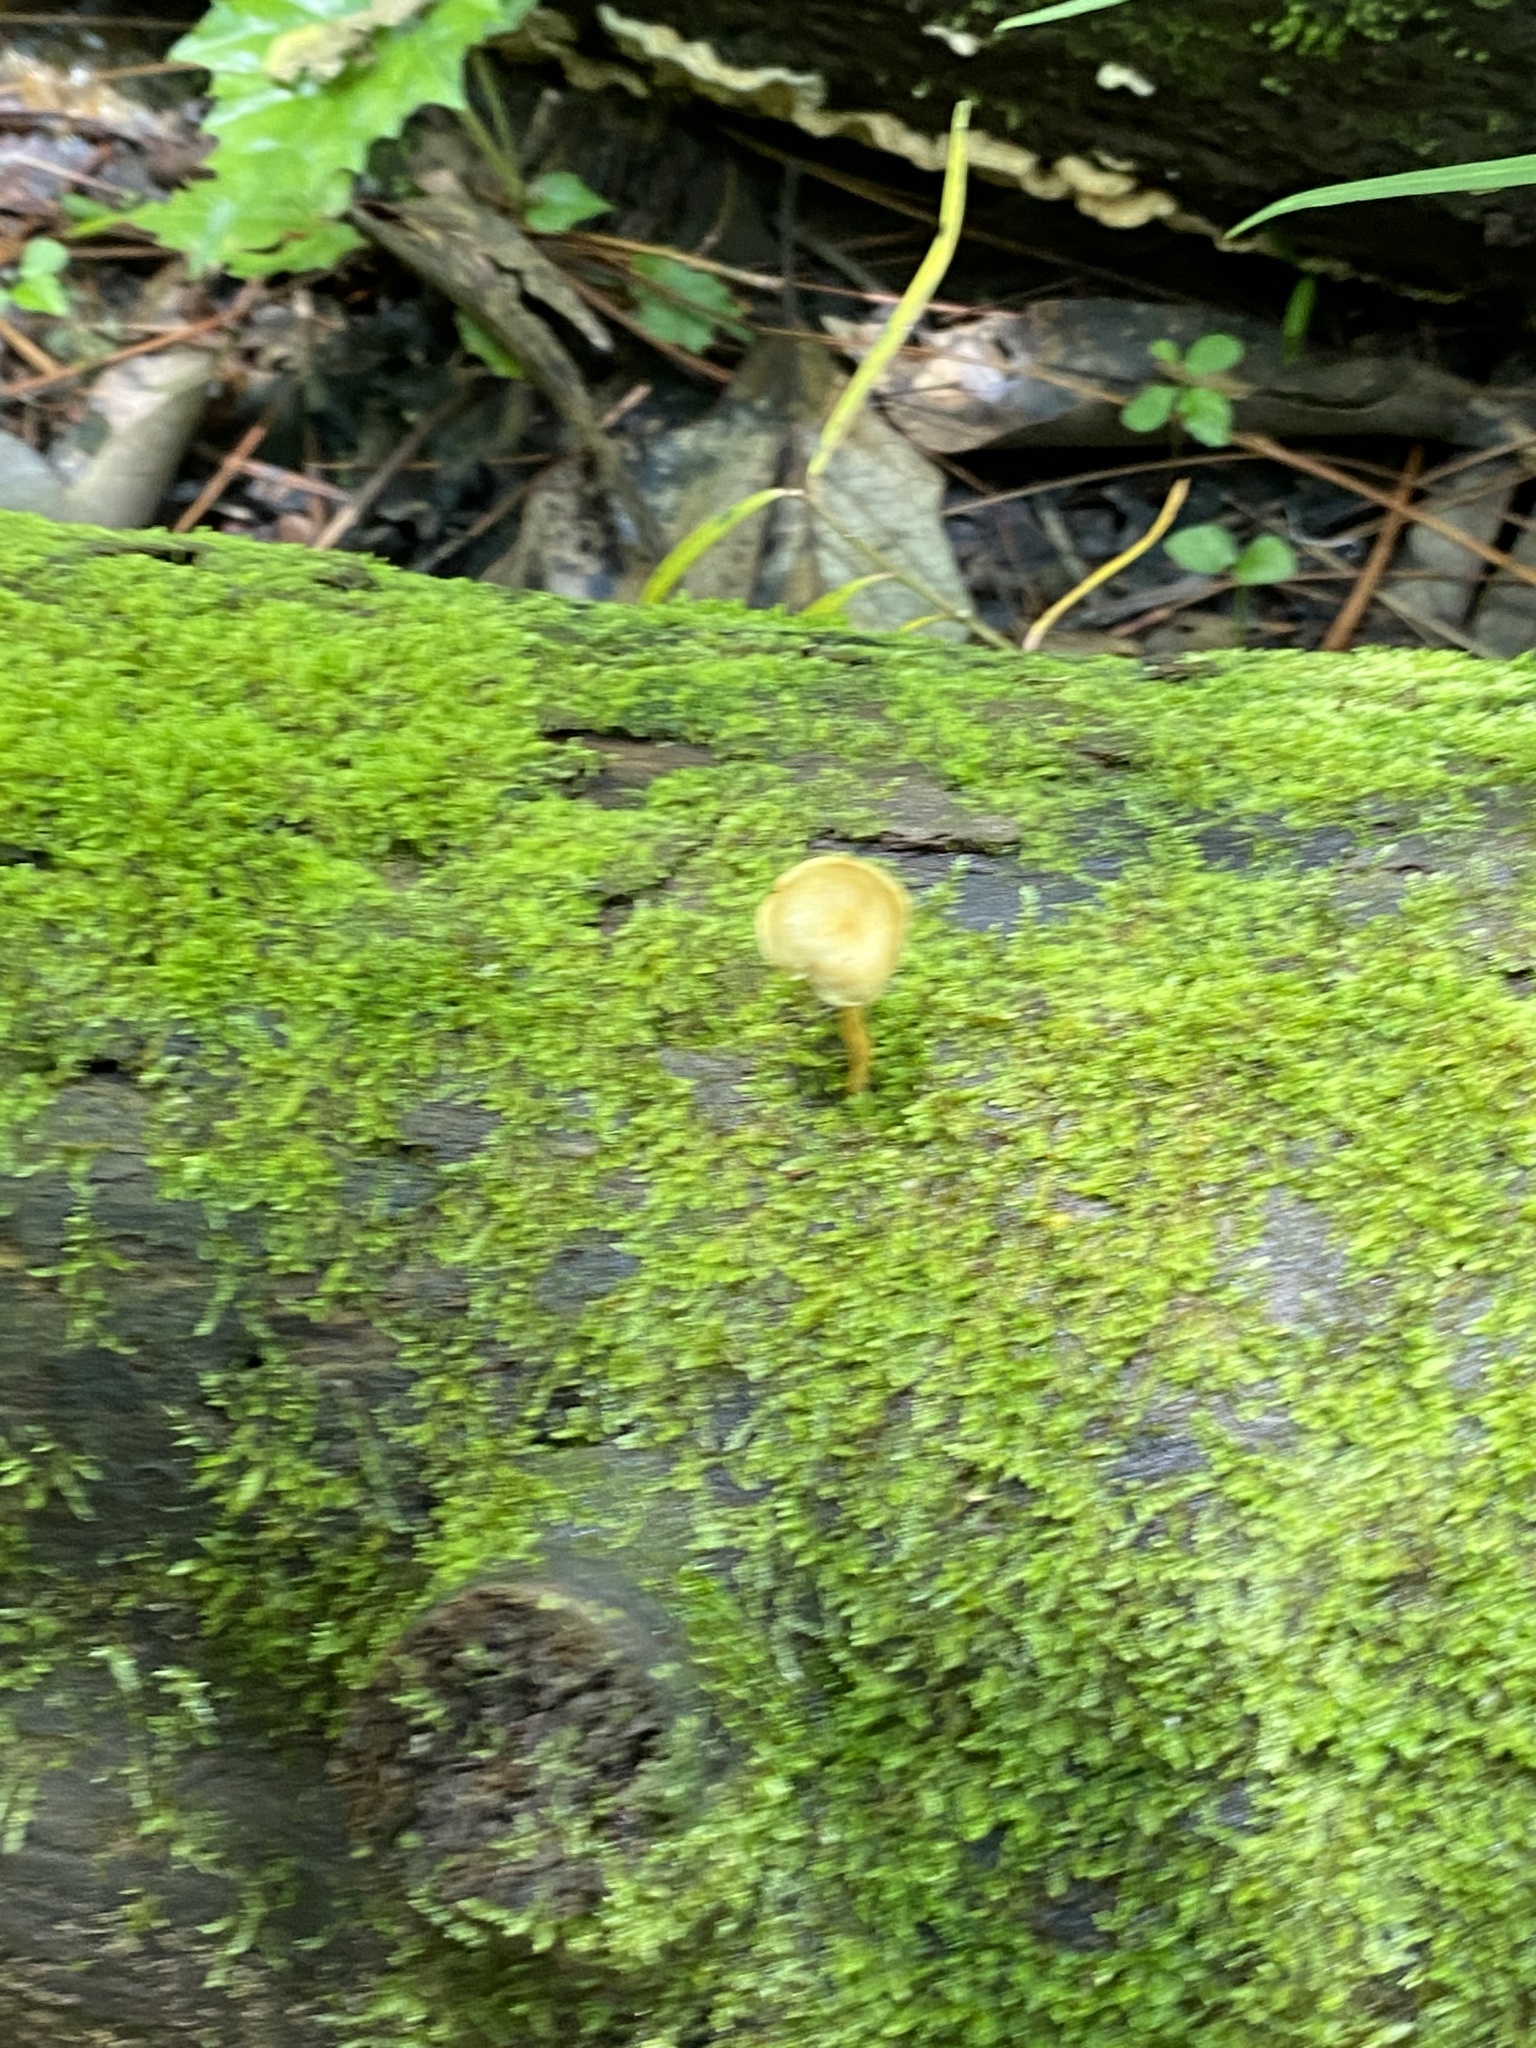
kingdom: Fungi
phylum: Basidiomycota
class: Agaricomycetes
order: Agaricales
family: Strophariaceae
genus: Hypholoma
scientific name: Hypholoma fasciculare
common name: Sulphur tuft
